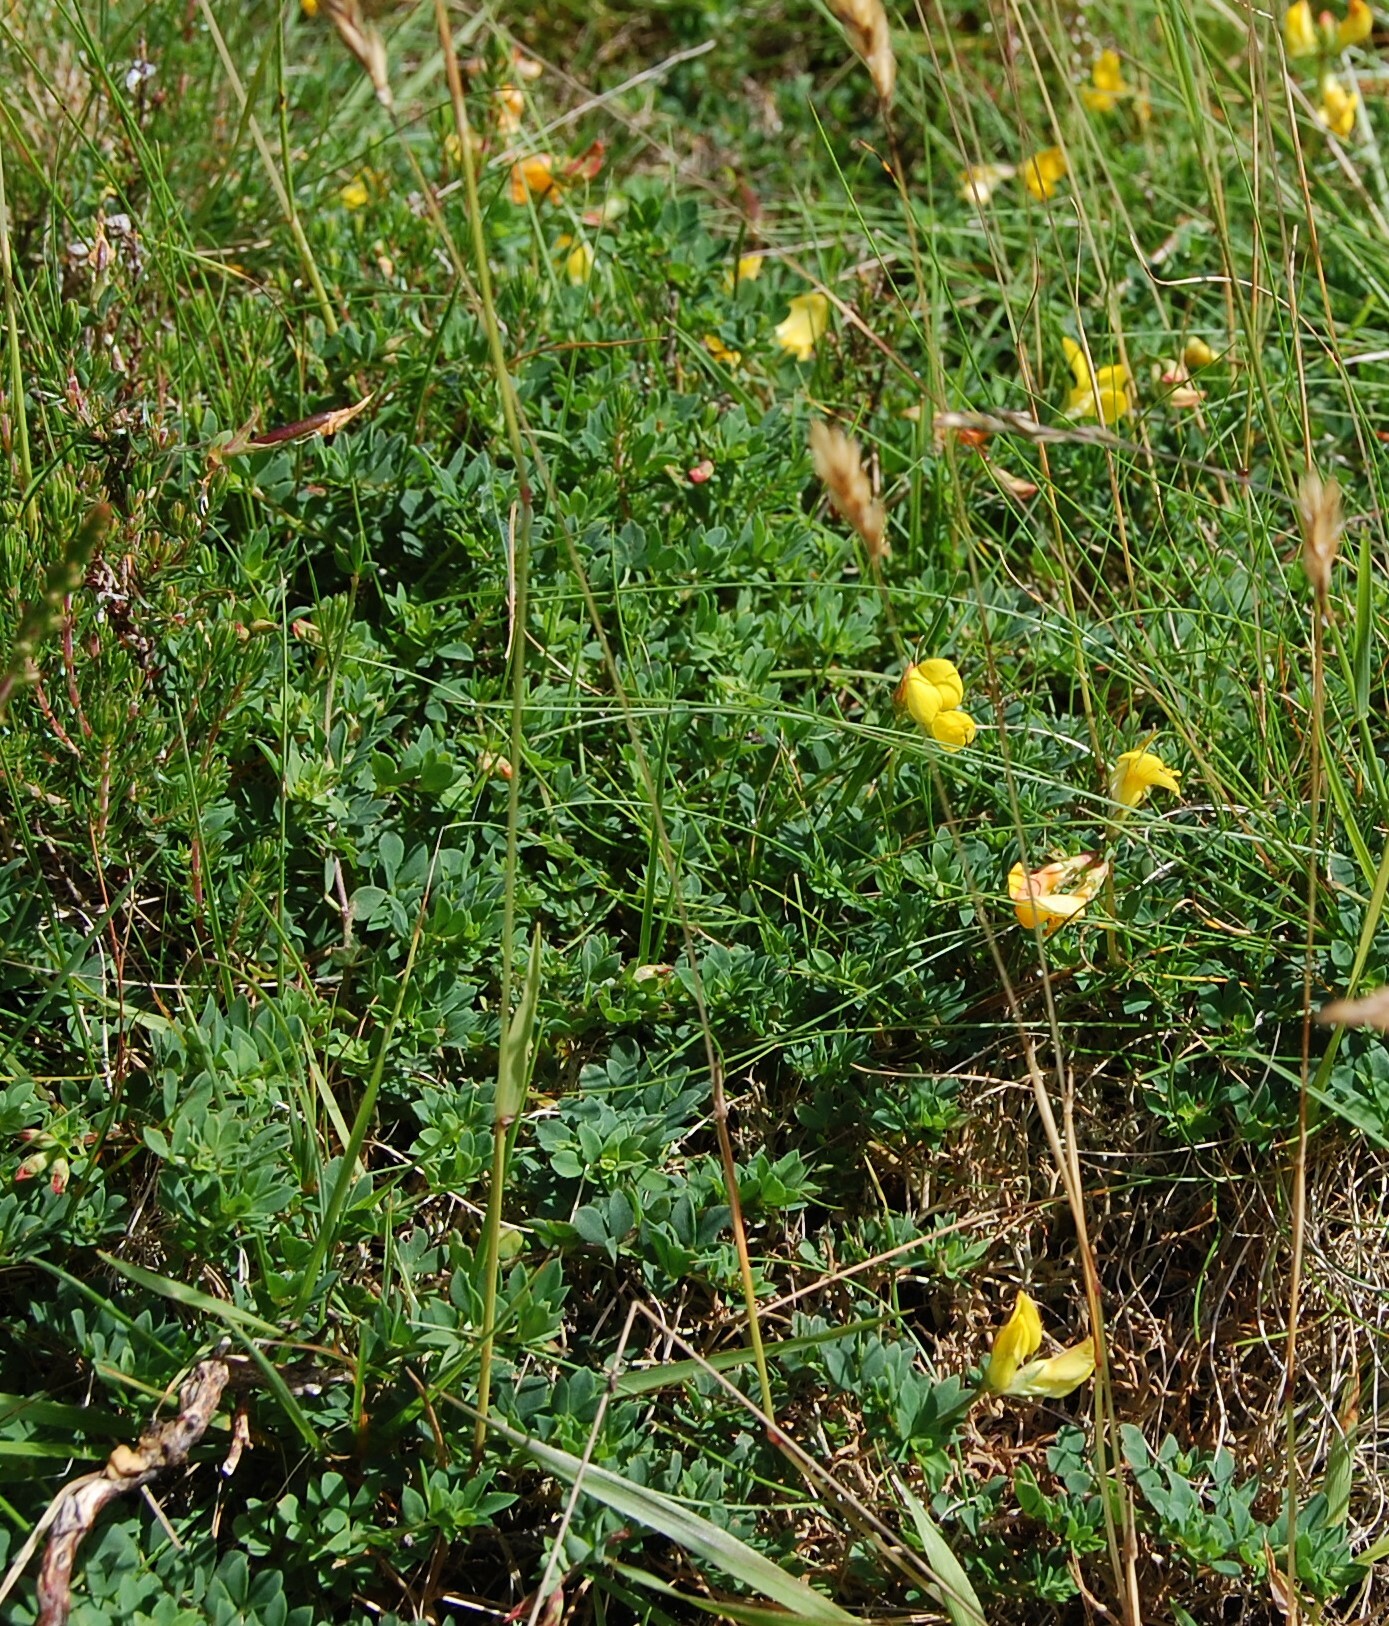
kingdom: Plantae
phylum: Tracheophyta
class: Magnoliopsida
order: Fabales
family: Fabaceae
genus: Lotus
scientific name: Lotus corniculatus
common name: Common bird's-foot-trefoil
